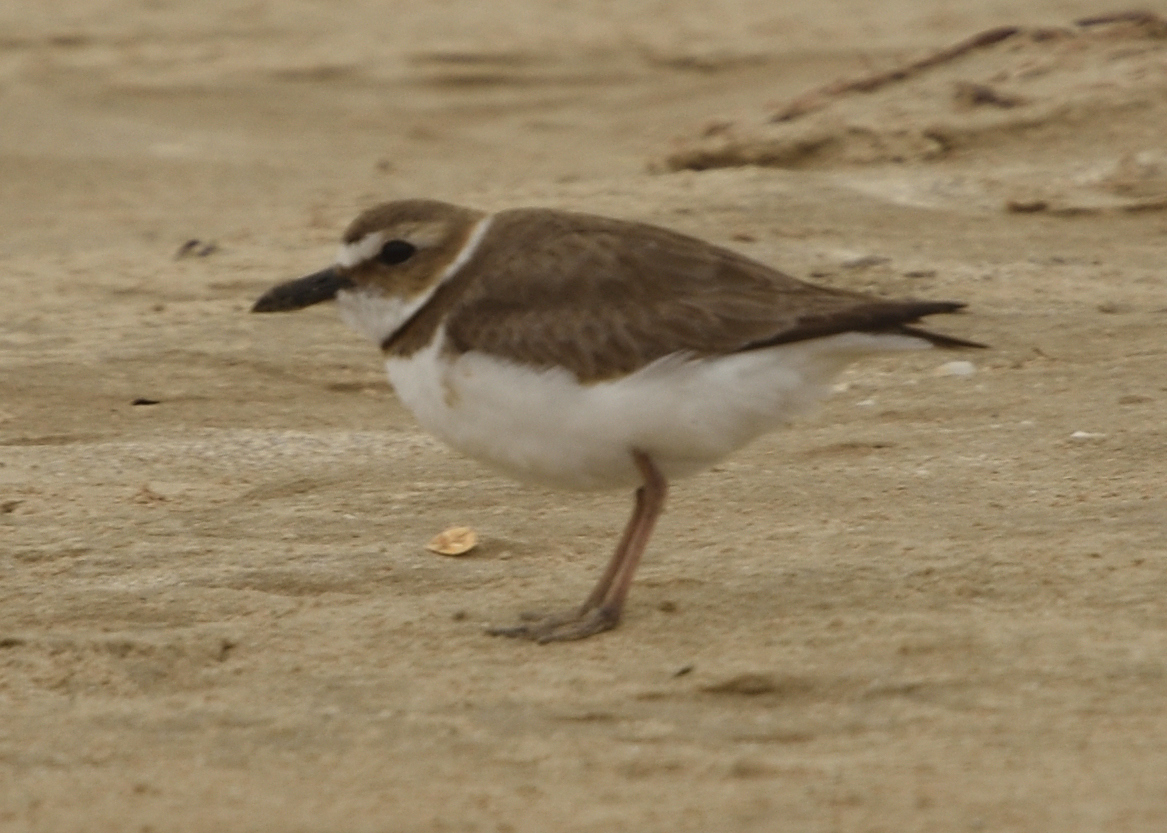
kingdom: Animalia
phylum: Chordata
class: Aves
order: Charadriiformes
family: Charadriidae
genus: Anarhynchus
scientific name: Anarhynchus
